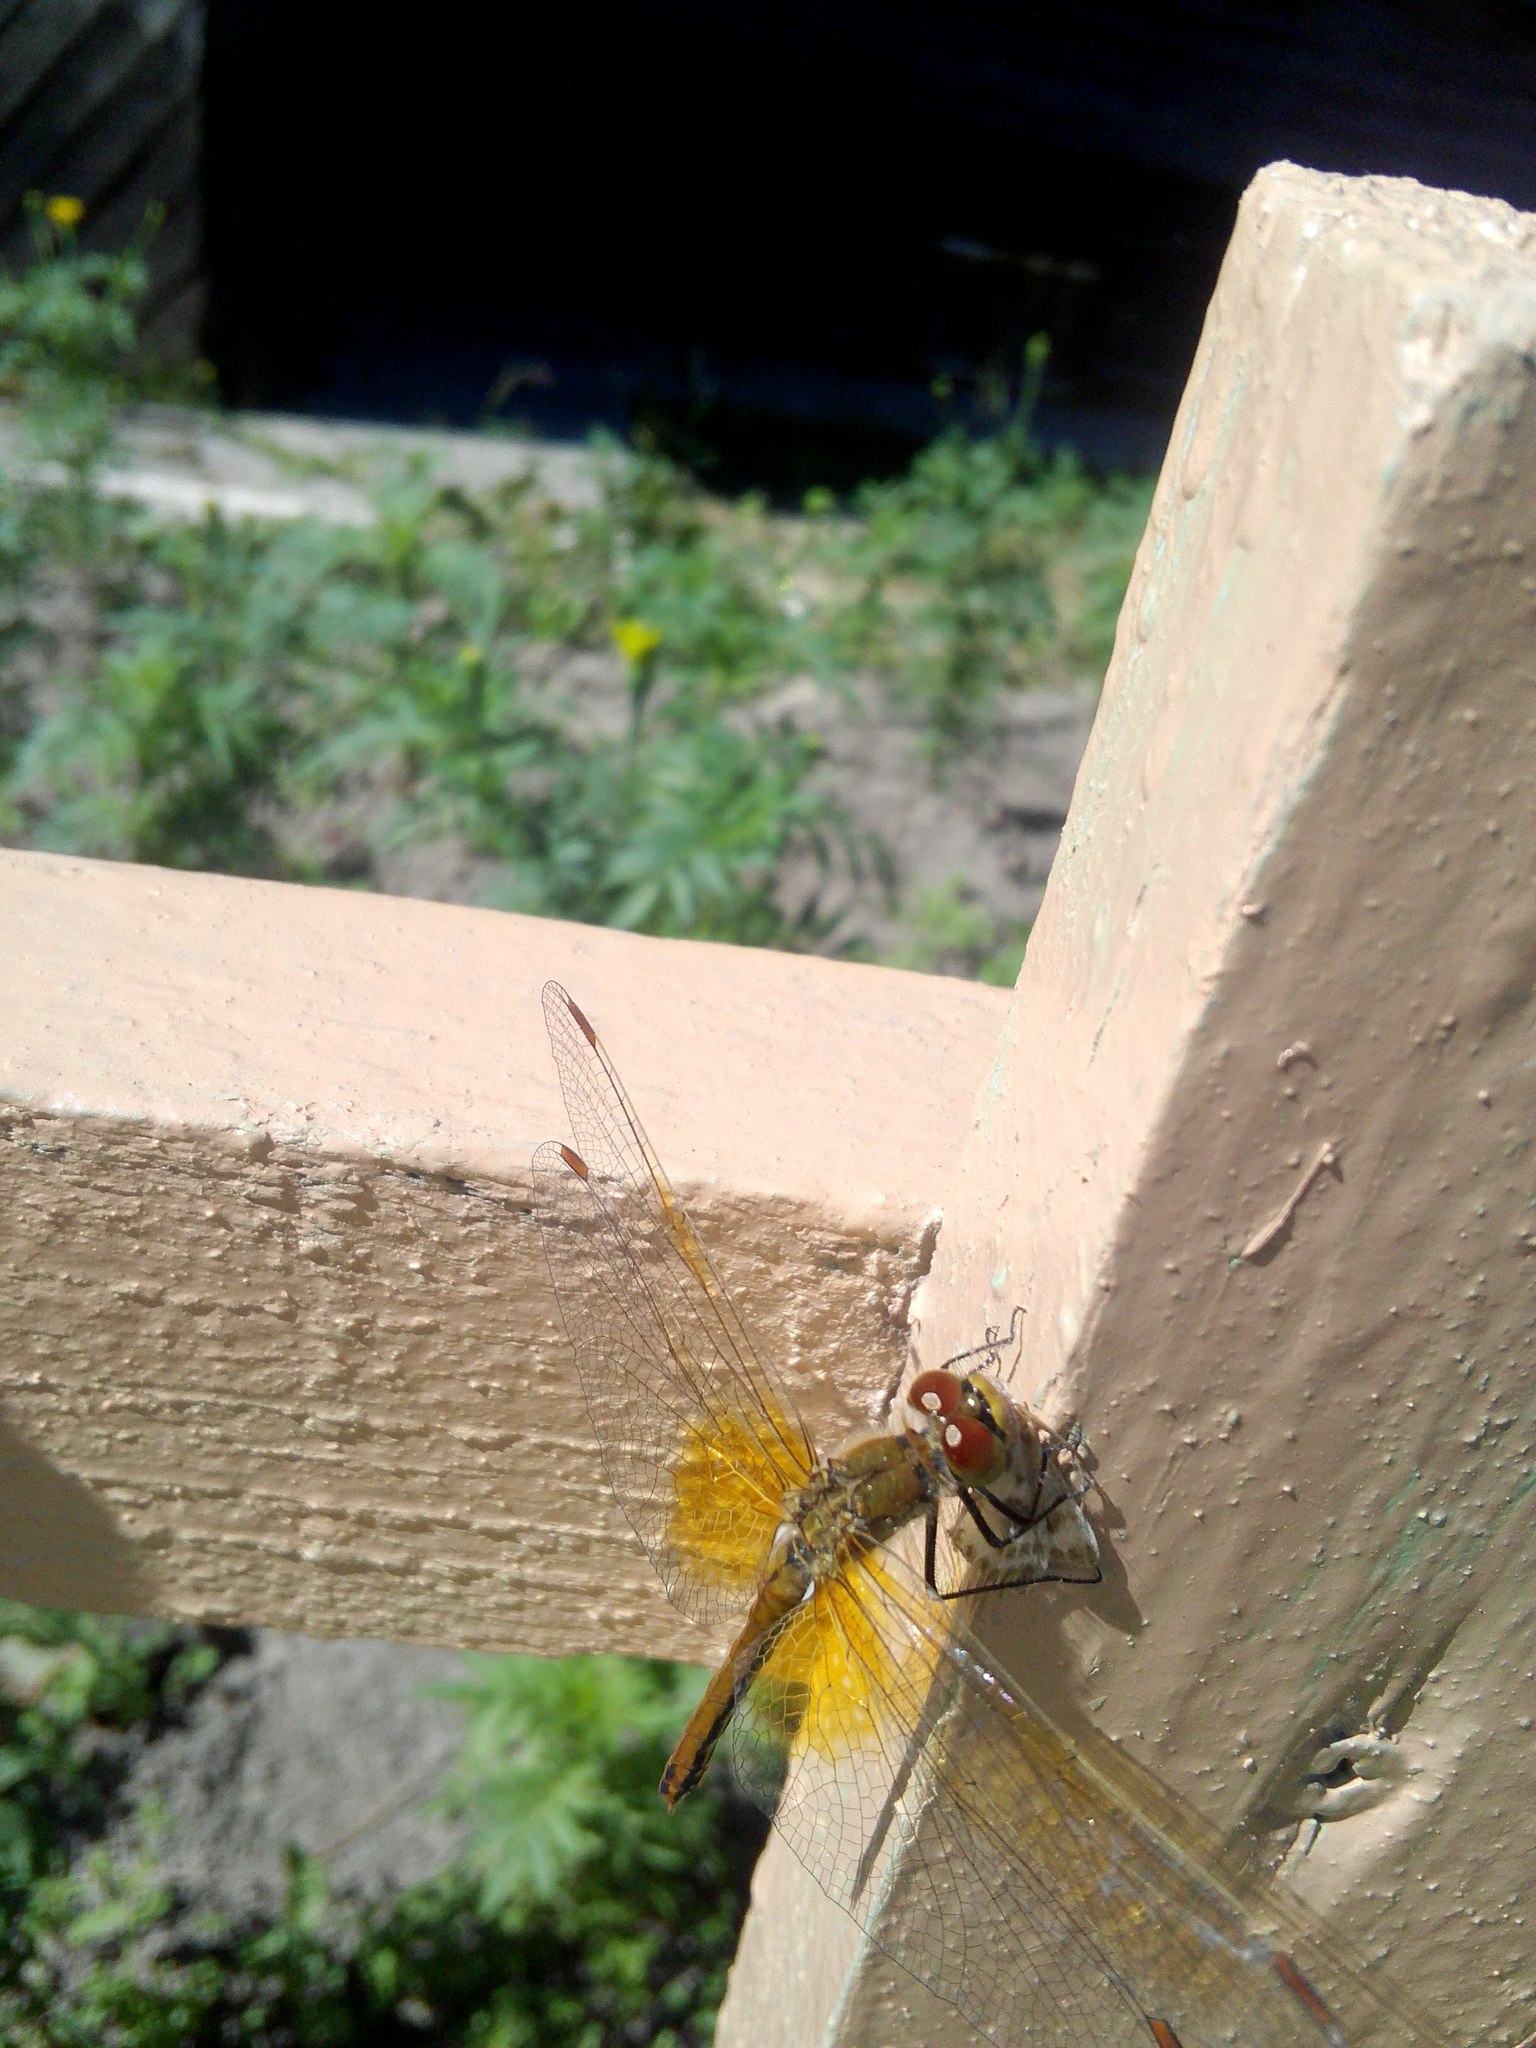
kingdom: Animalia
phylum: Arthropoda
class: Insecta
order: Odonata
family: Libellulidae
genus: Sympetrum
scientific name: Sympetrum flaveolum
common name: Yellow-winged darter
